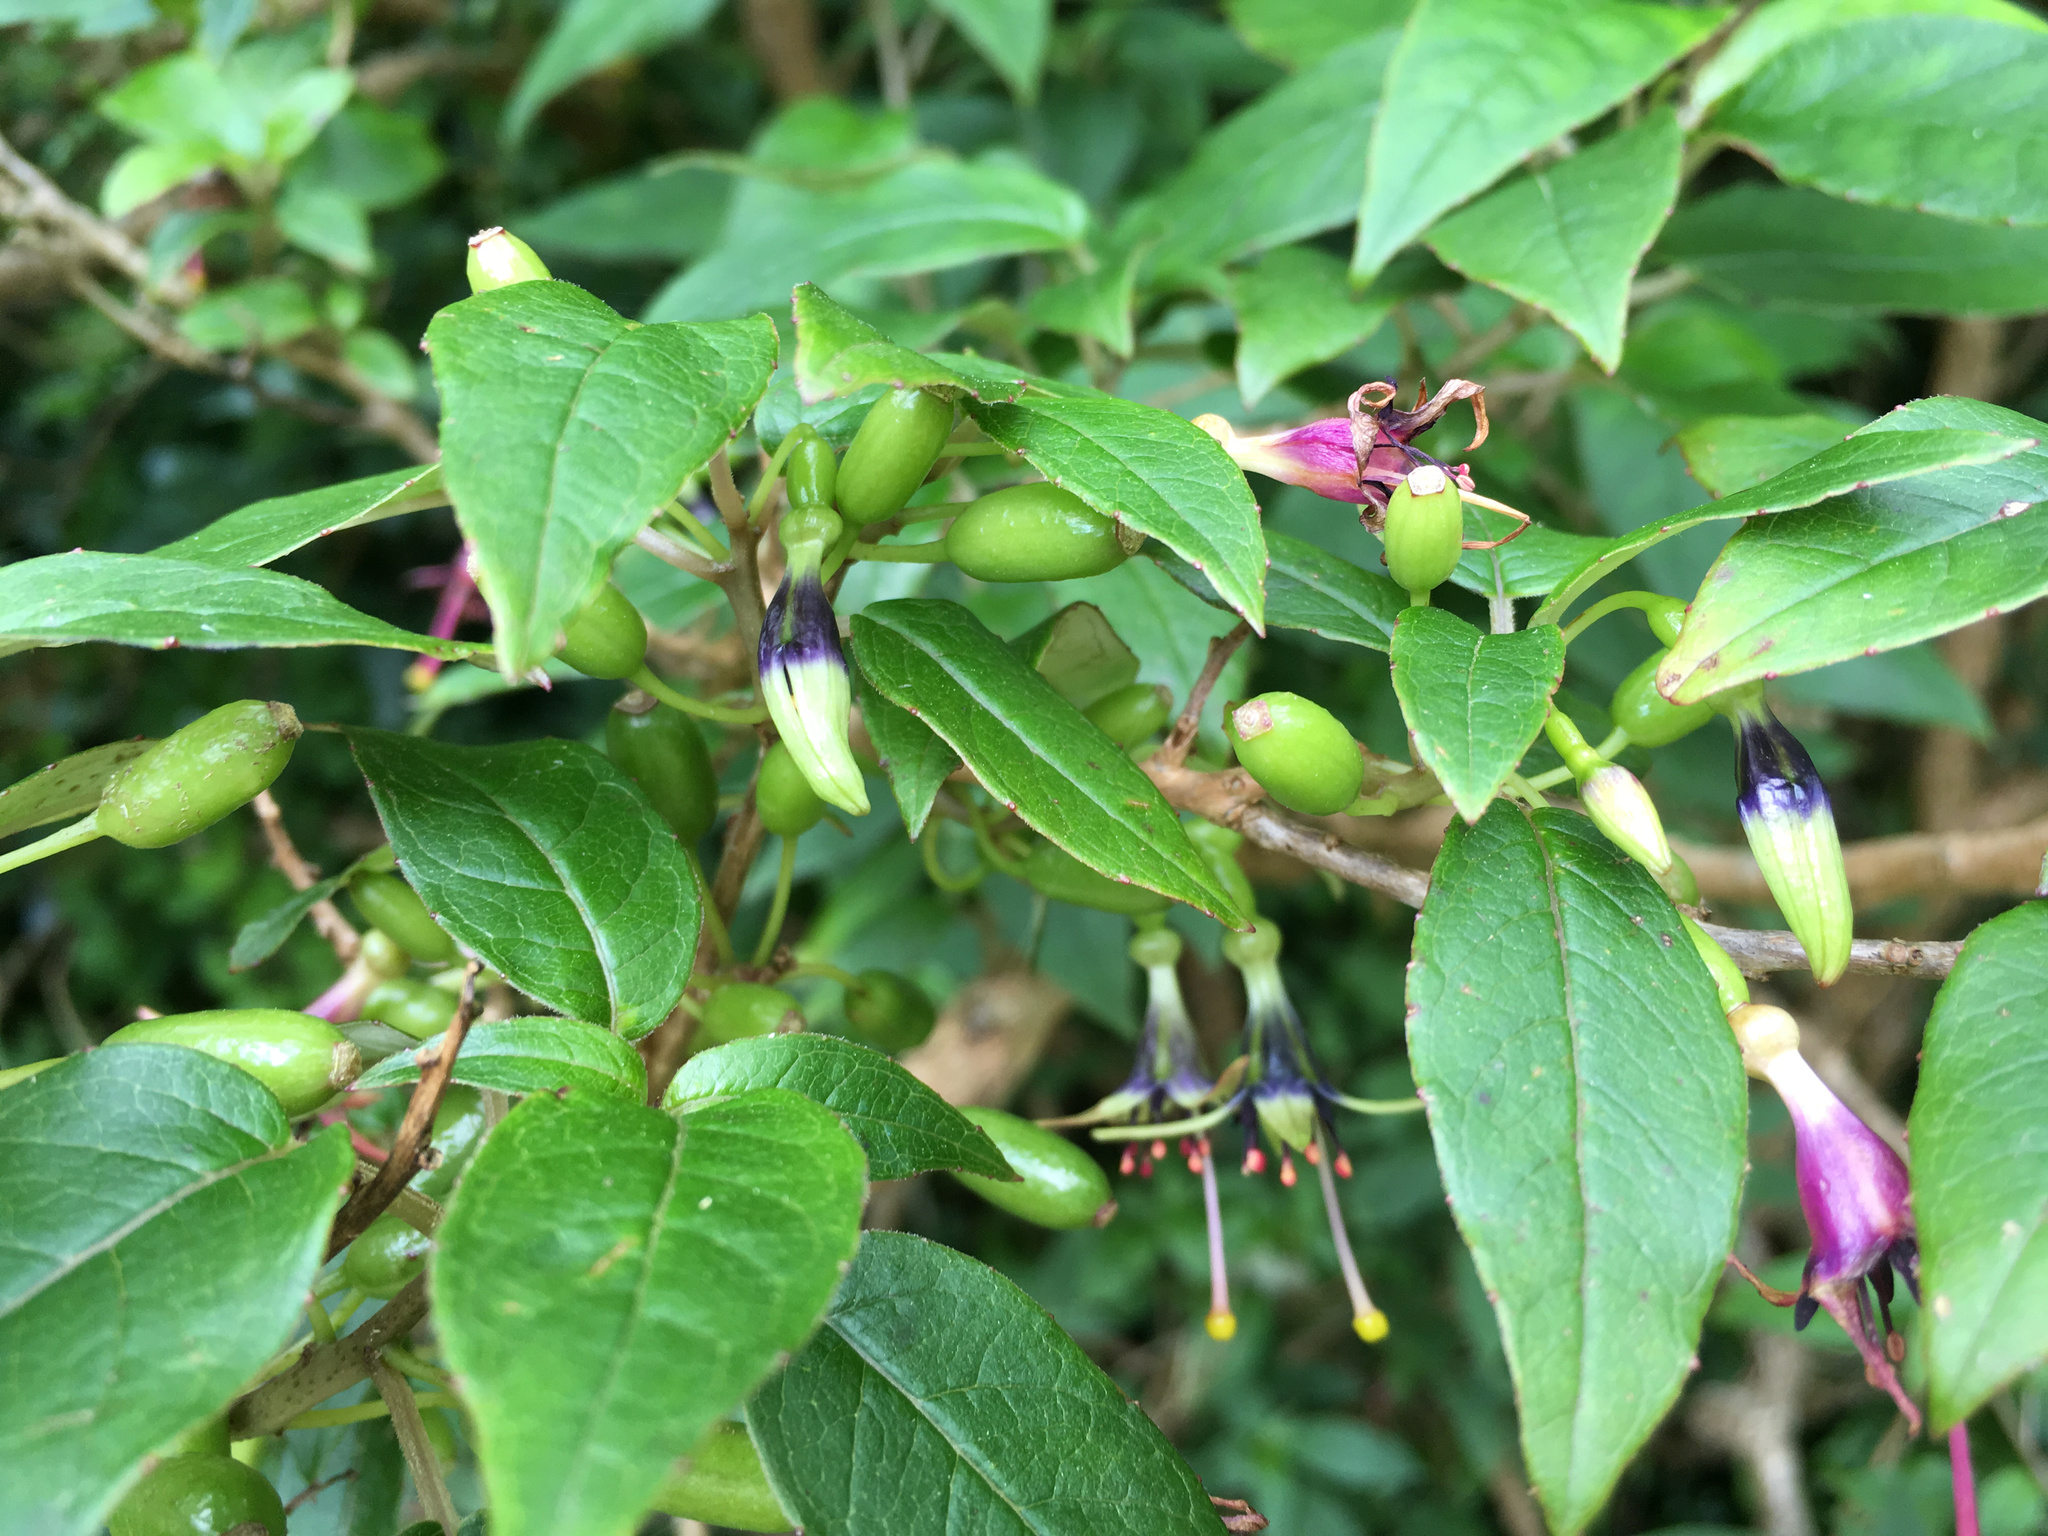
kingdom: Plantae
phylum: Tracheophyta
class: Magnoliopsida
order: Myrtales
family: Onagraceae
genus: Fuchsia
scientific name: Fuchsia excorticata
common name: Tree fuchsia
